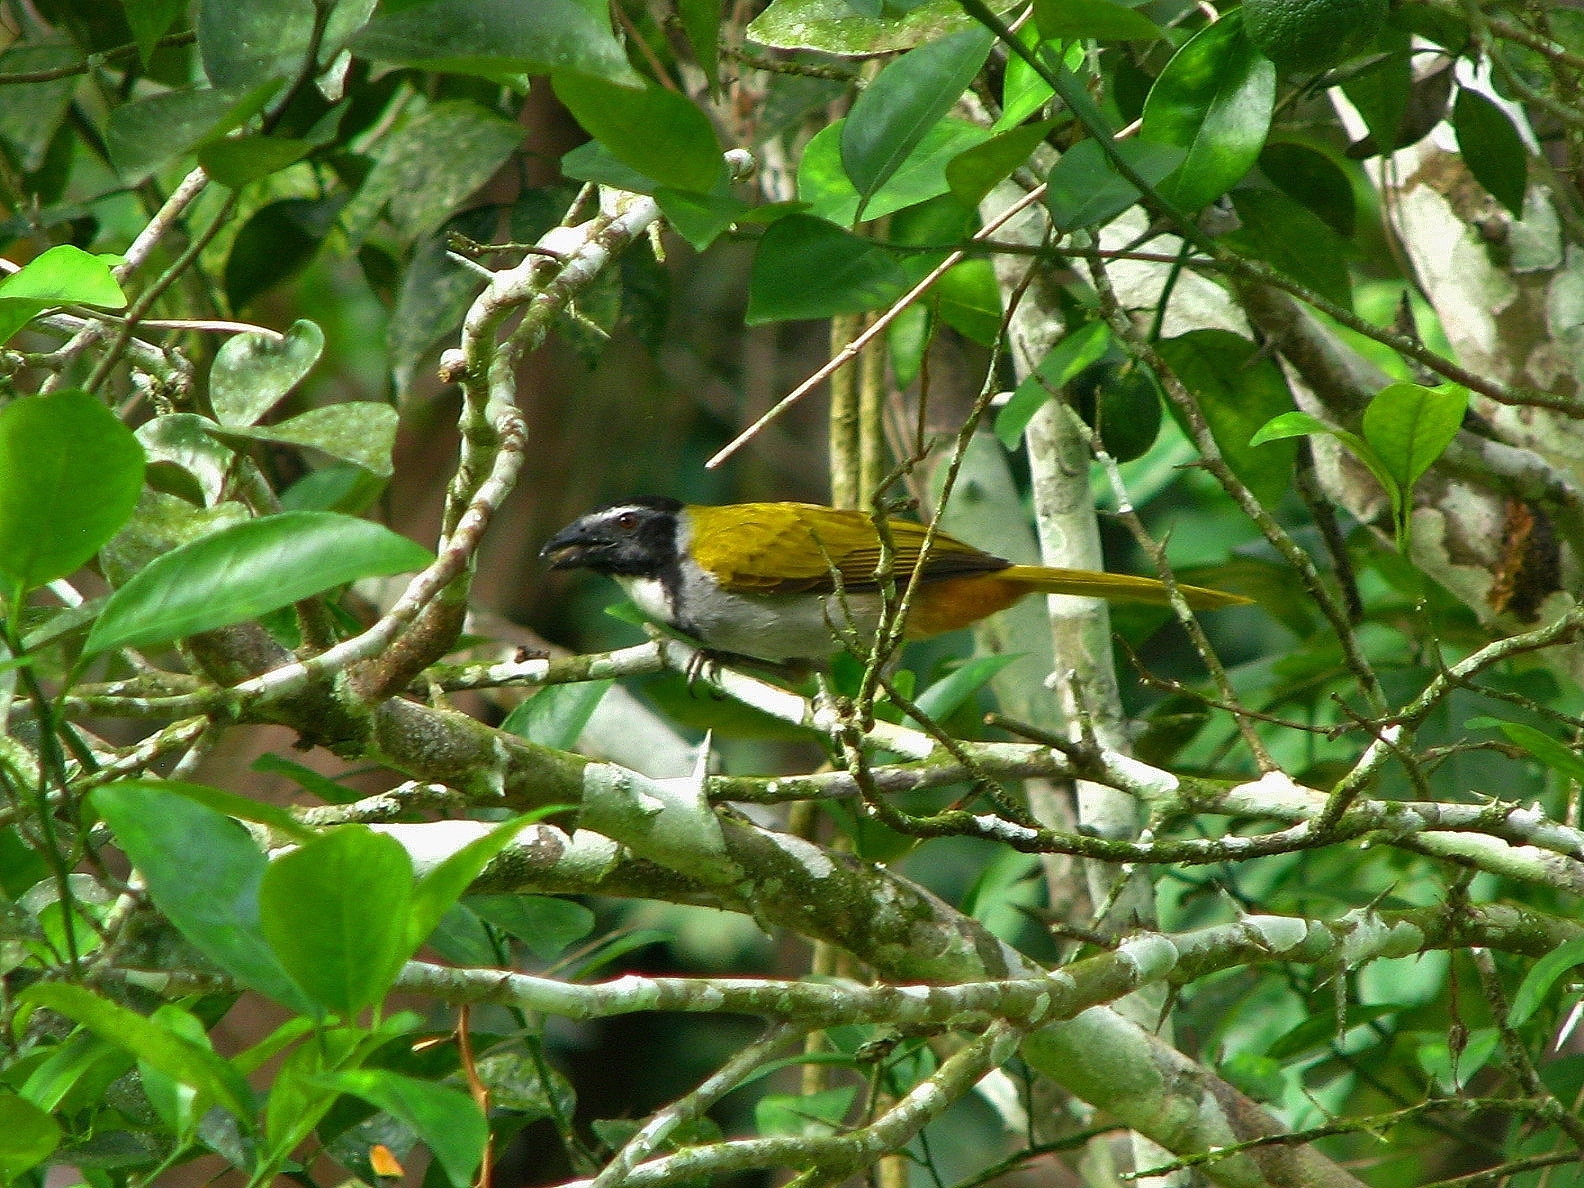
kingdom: Animalia
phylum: Chordata
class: Aves
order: Passeriformes
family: Thraupidae
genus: Saltator
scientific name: Saltator atriceps
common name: Black-headed saltator
